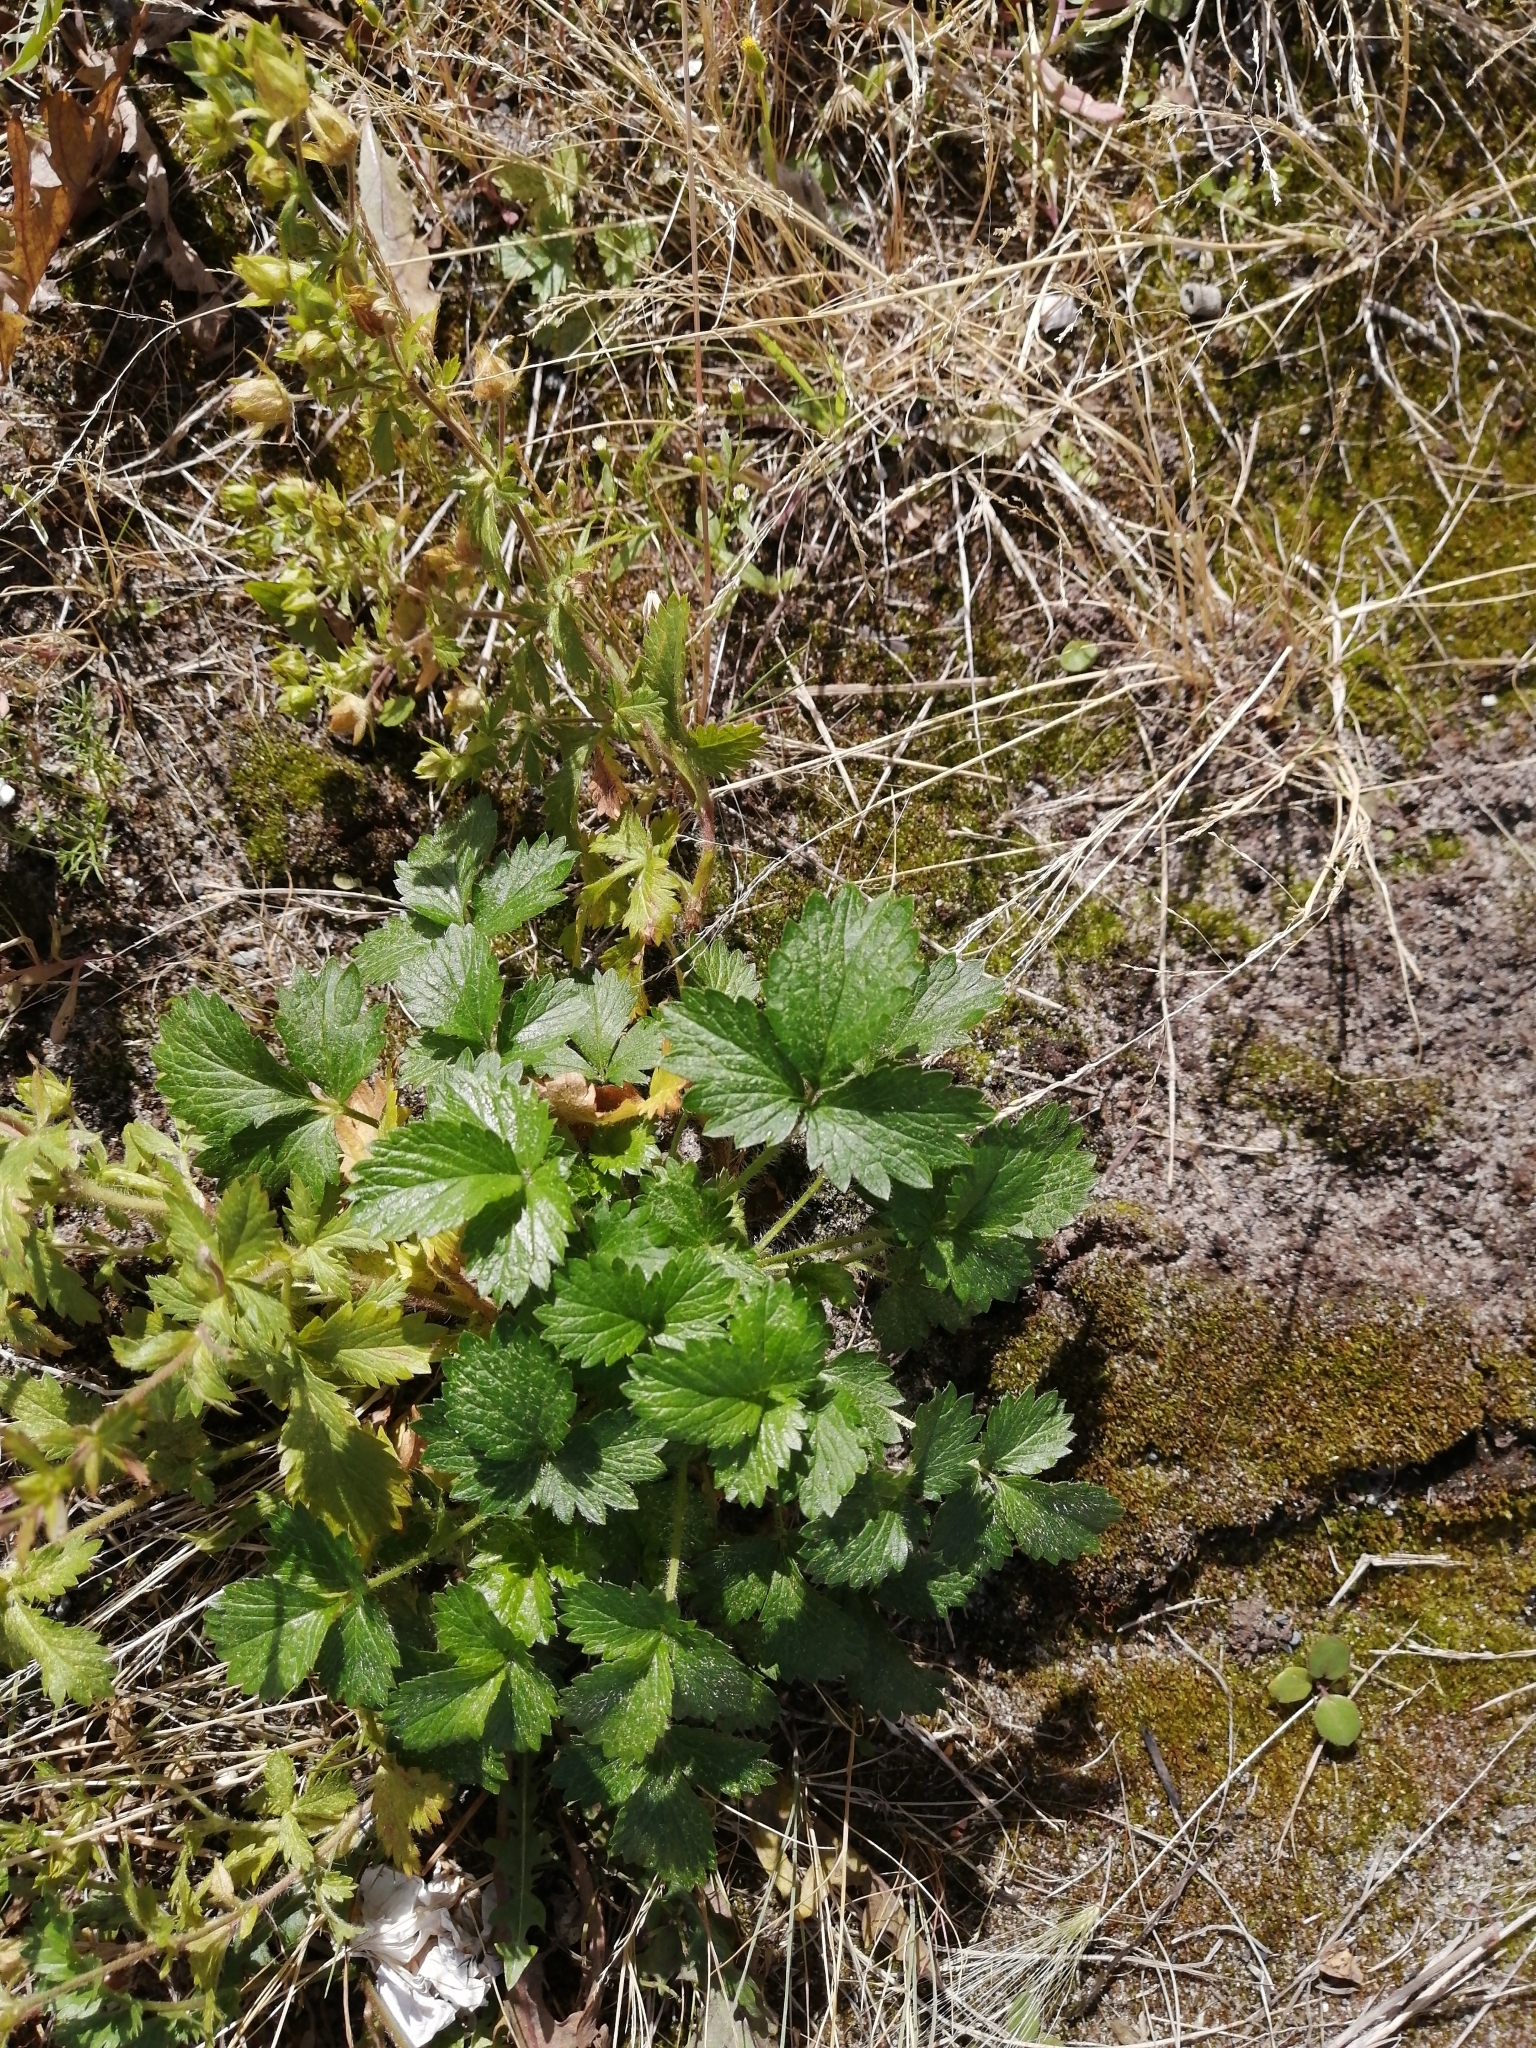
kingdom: Plantae
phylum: Tracheophyta
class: Magnoliopsida
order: Rosales
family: Rosaceae
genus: Potentilla
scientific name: Potentilla norvegica
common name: Ternate-leaved cinquefoil
